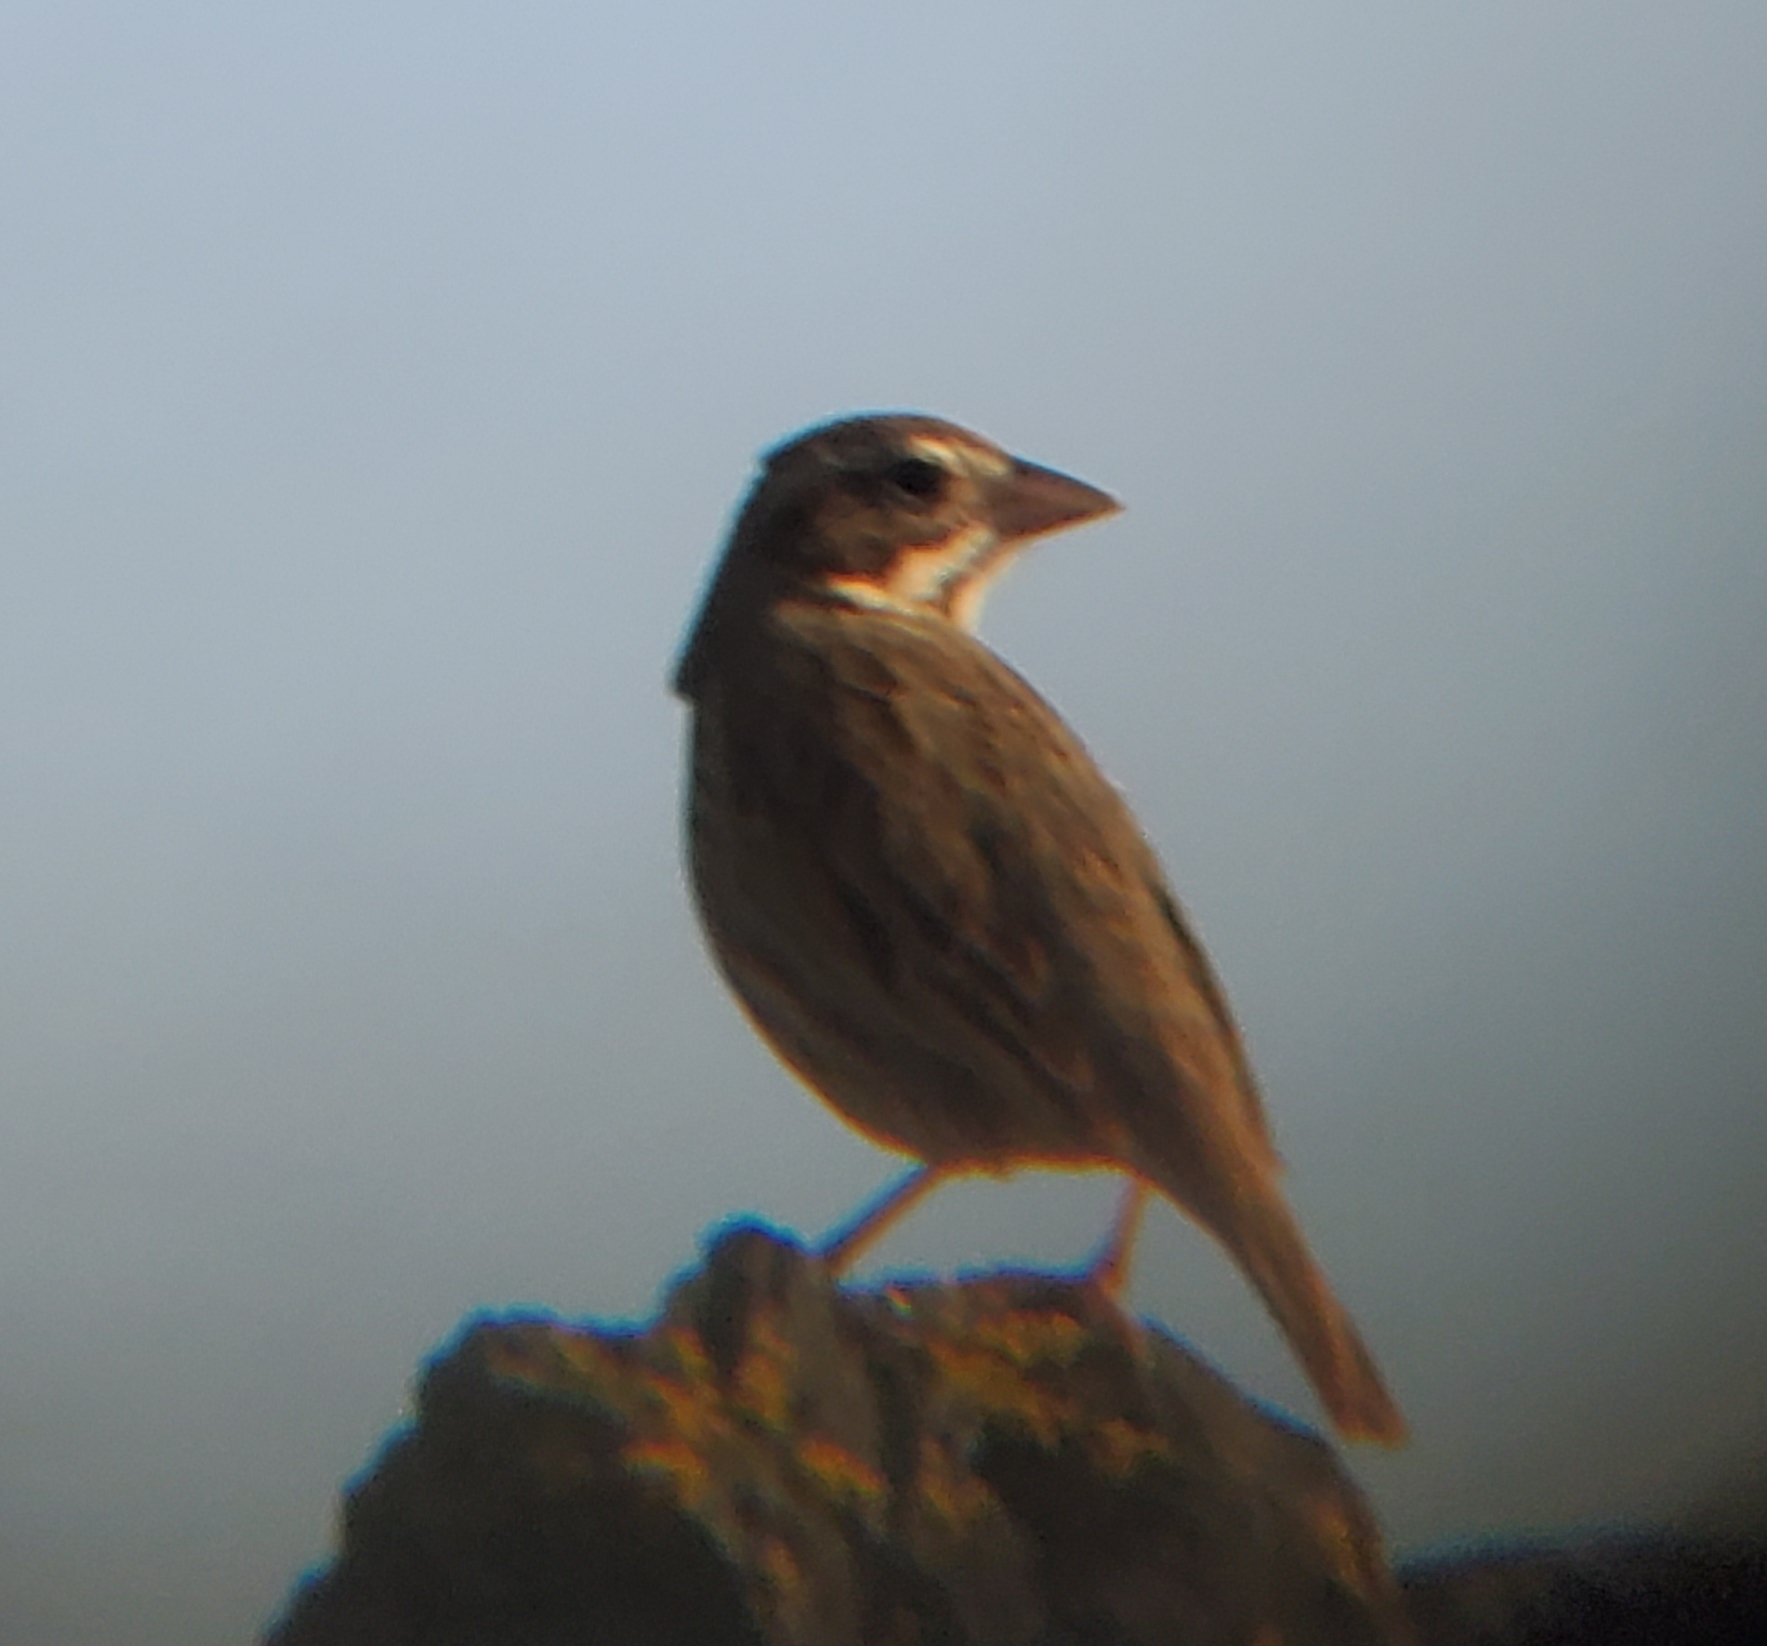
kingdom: Animalia
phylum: Chordata
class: Aves
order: Passeriformes
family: Passerellidae
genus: Passerculus
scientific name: Passerculus sandwichensis
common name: Savannah sparrow
